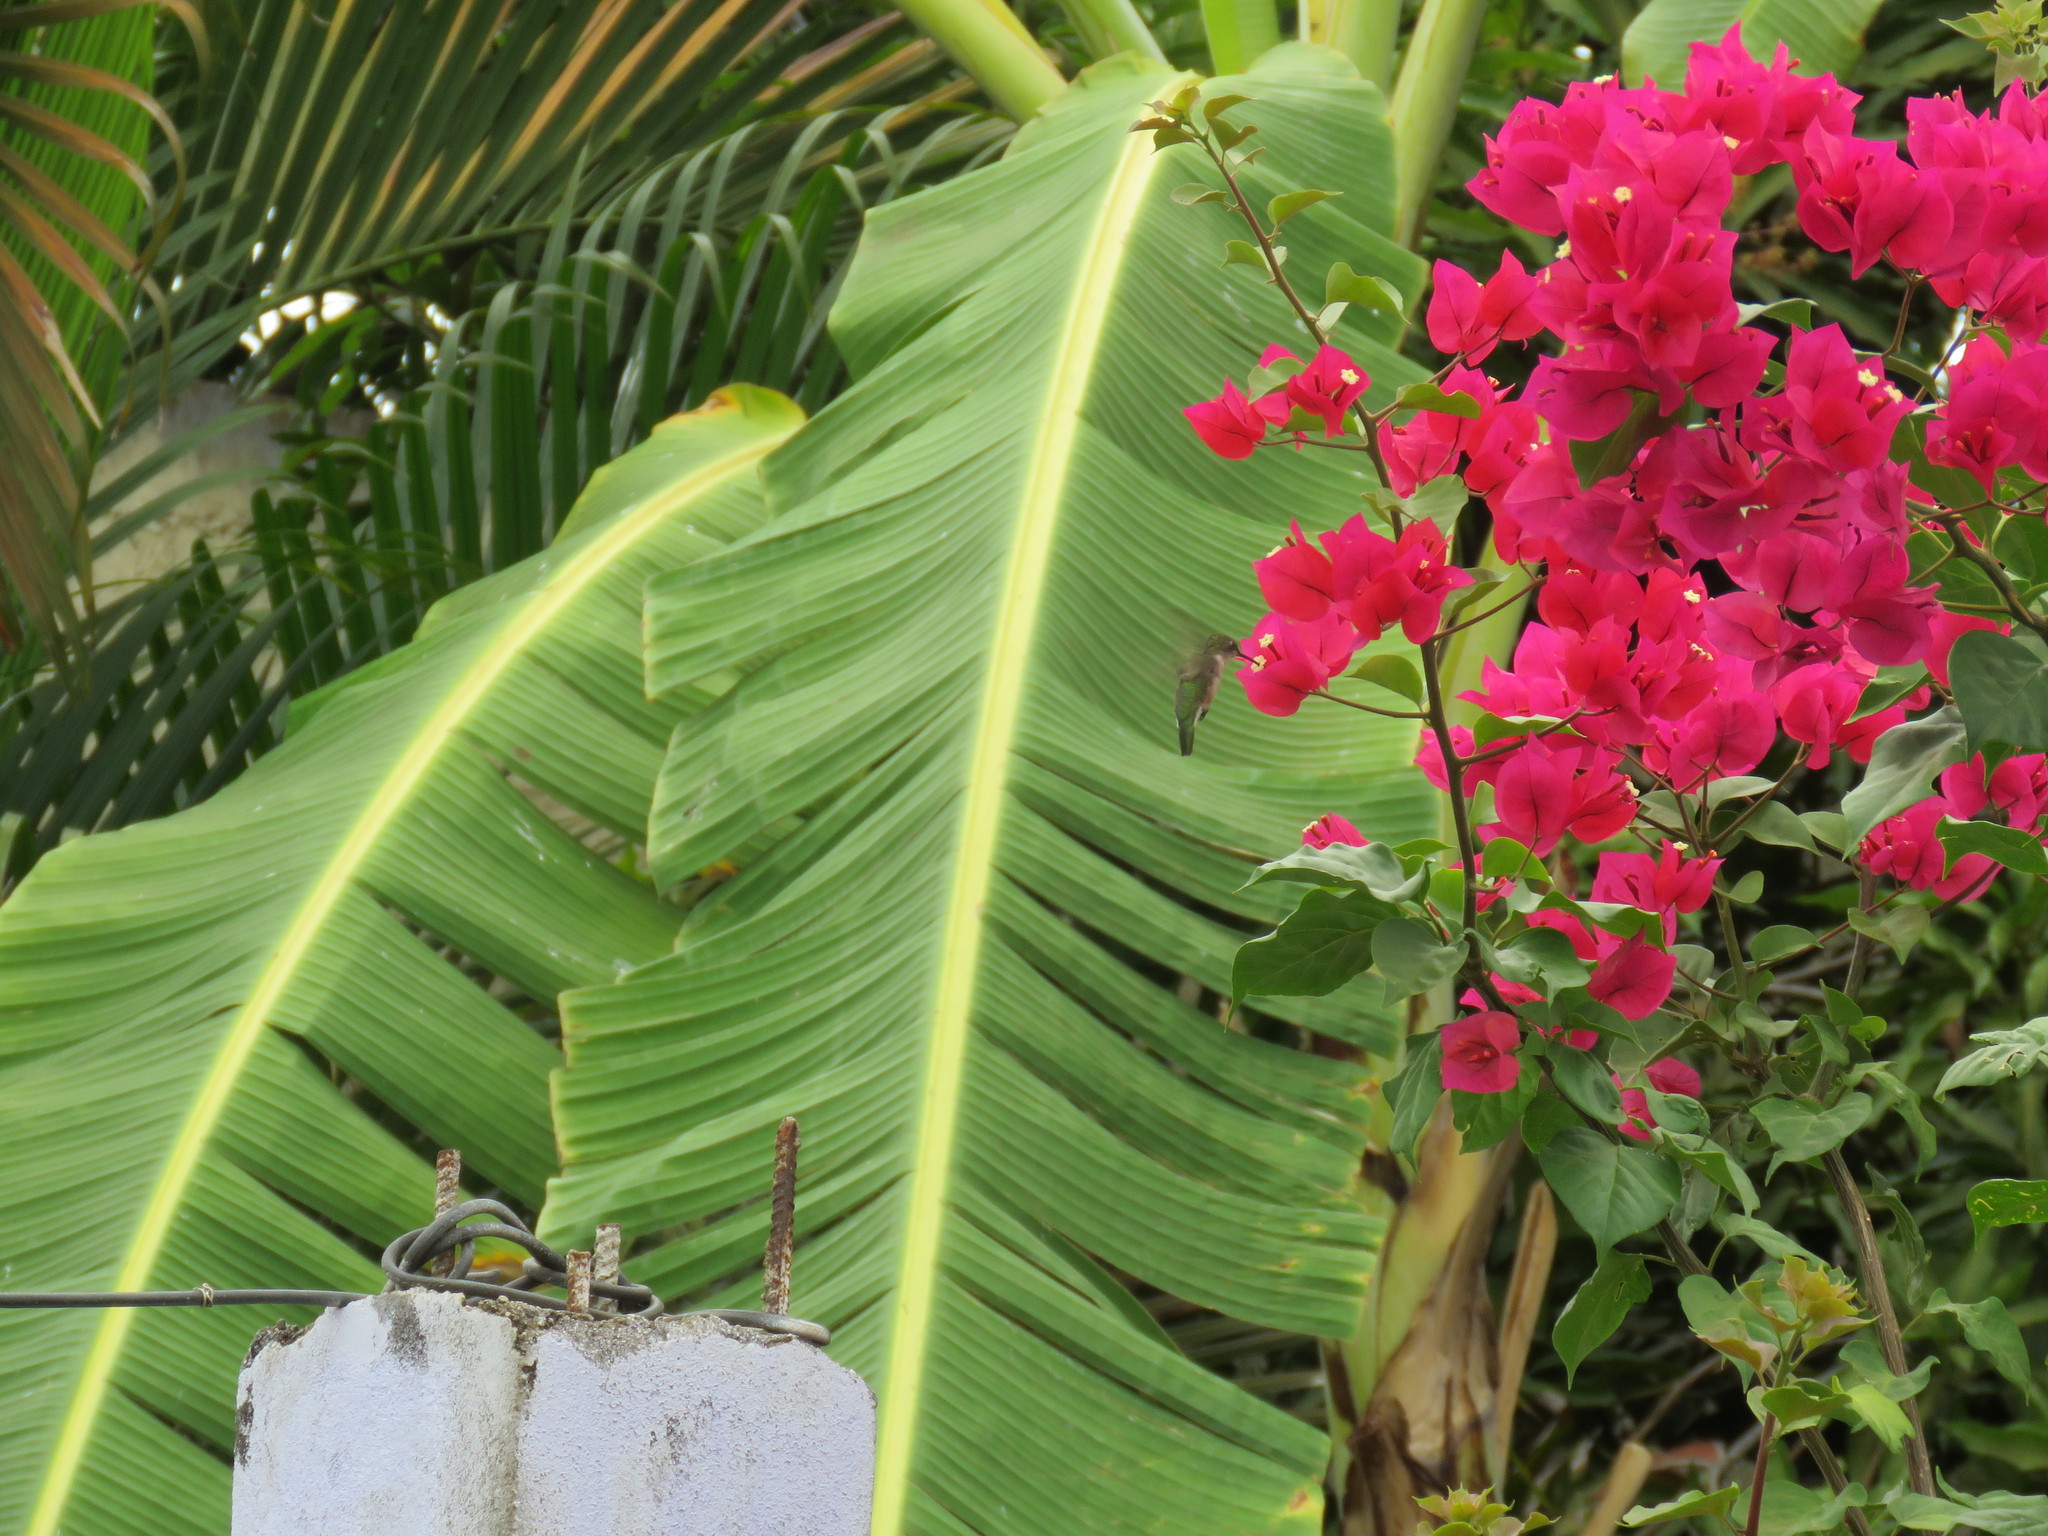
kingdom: Animalia
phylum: Chordata
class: Aves
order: Apodiformes
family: Trochilidae
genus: Archilochus
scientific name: Archilochus colubris
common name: Ruby-throated hummingbird
